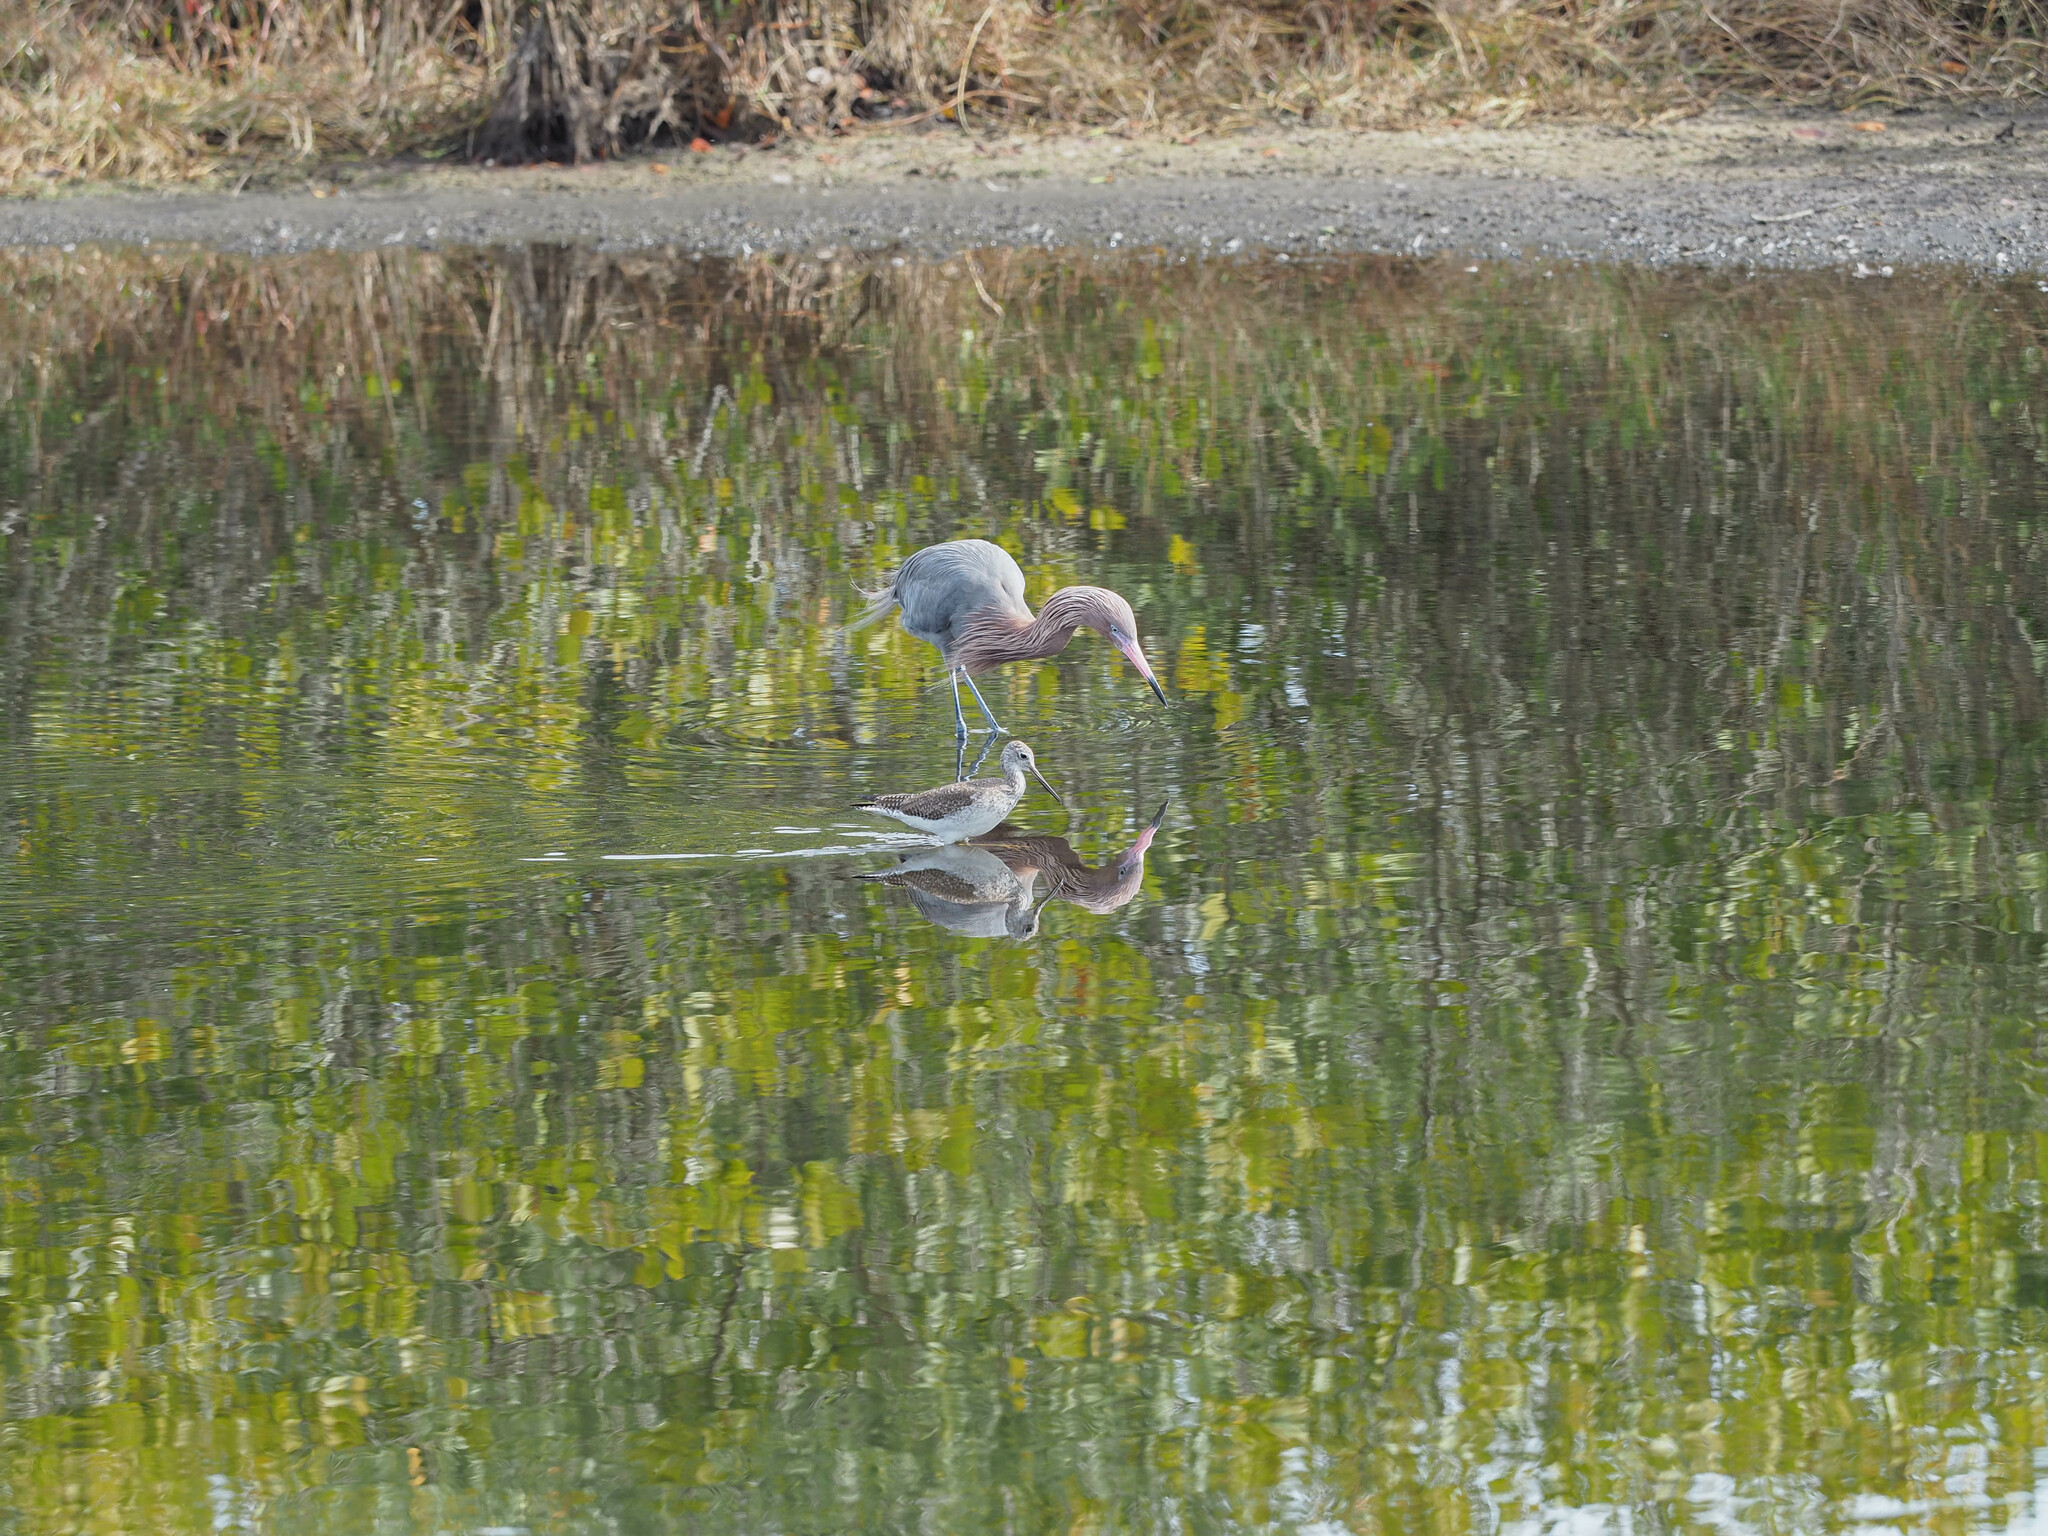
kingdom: Animalia
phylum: Chordata
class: Aves
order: Pelecaniformes
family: Ardeidae
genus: Egretta
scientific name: Egretta rufescens
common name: Reddish egret
